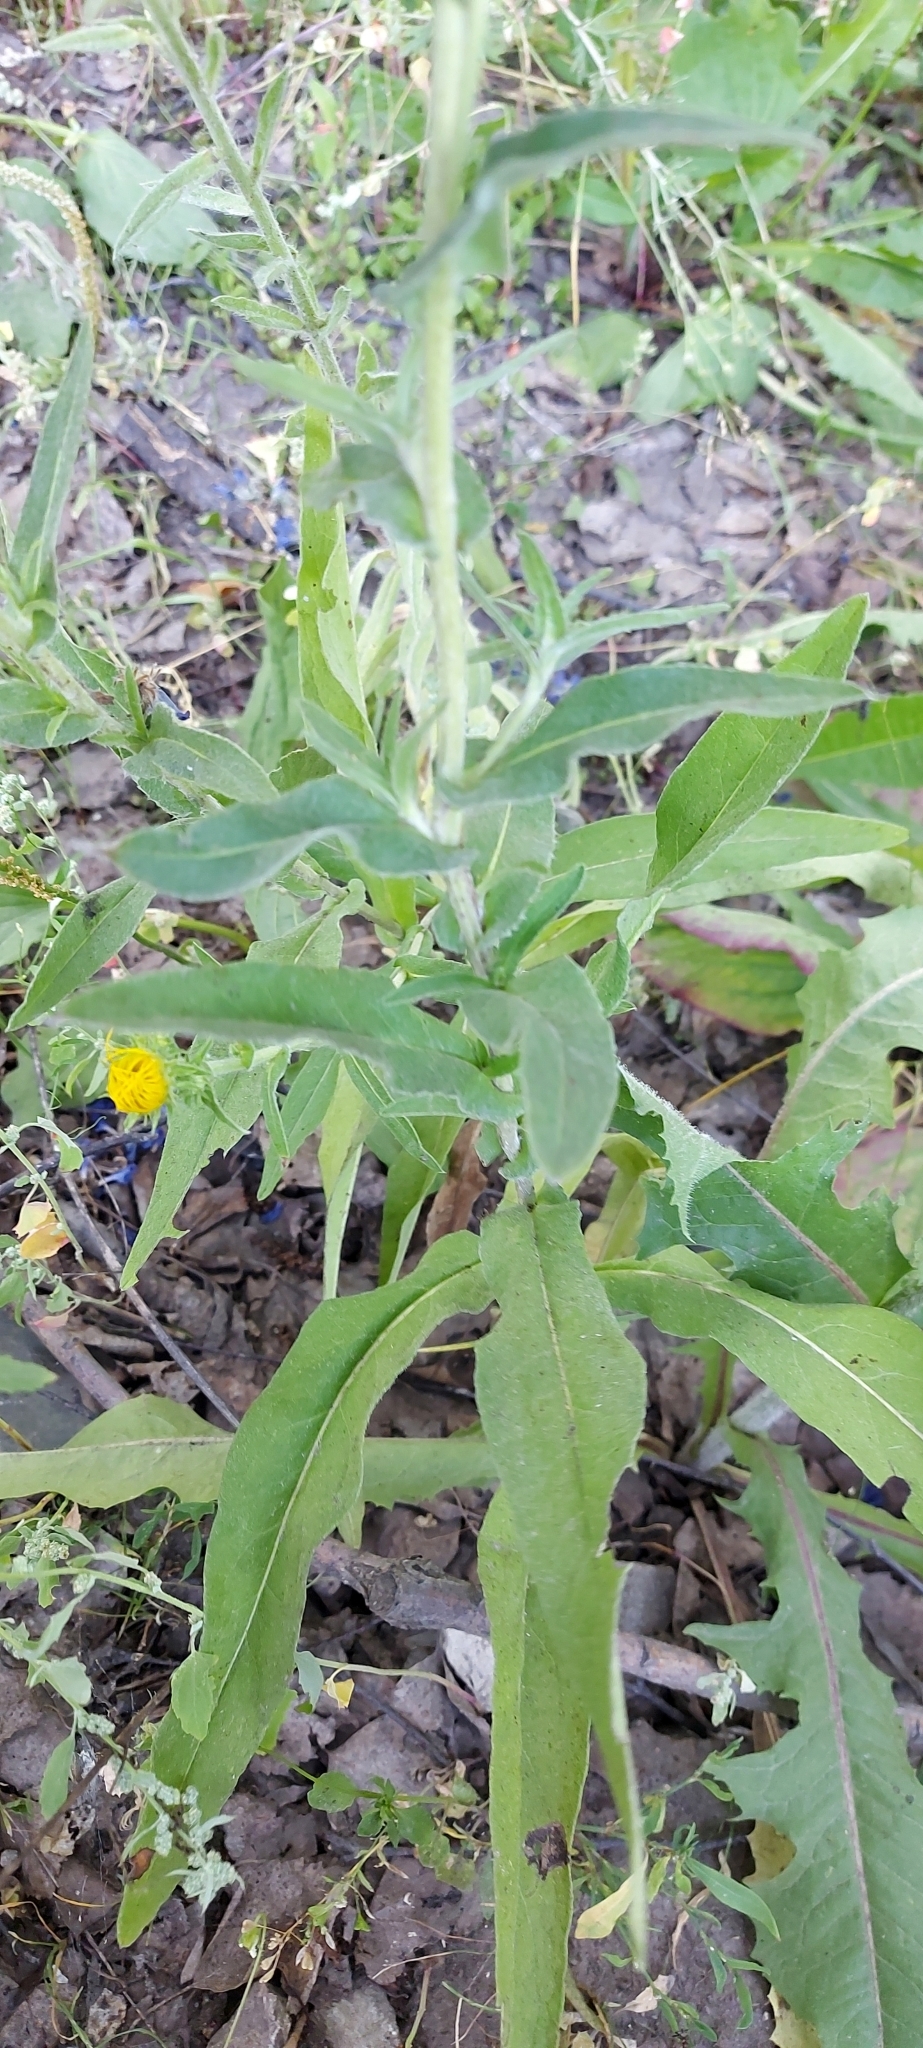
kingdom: Plantae
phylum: Tracheophyta
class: Magnoliopsida
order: Asterales
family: Asteraceae
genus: Pentanema
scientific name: Pentanema britannicum
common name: British elecampane
